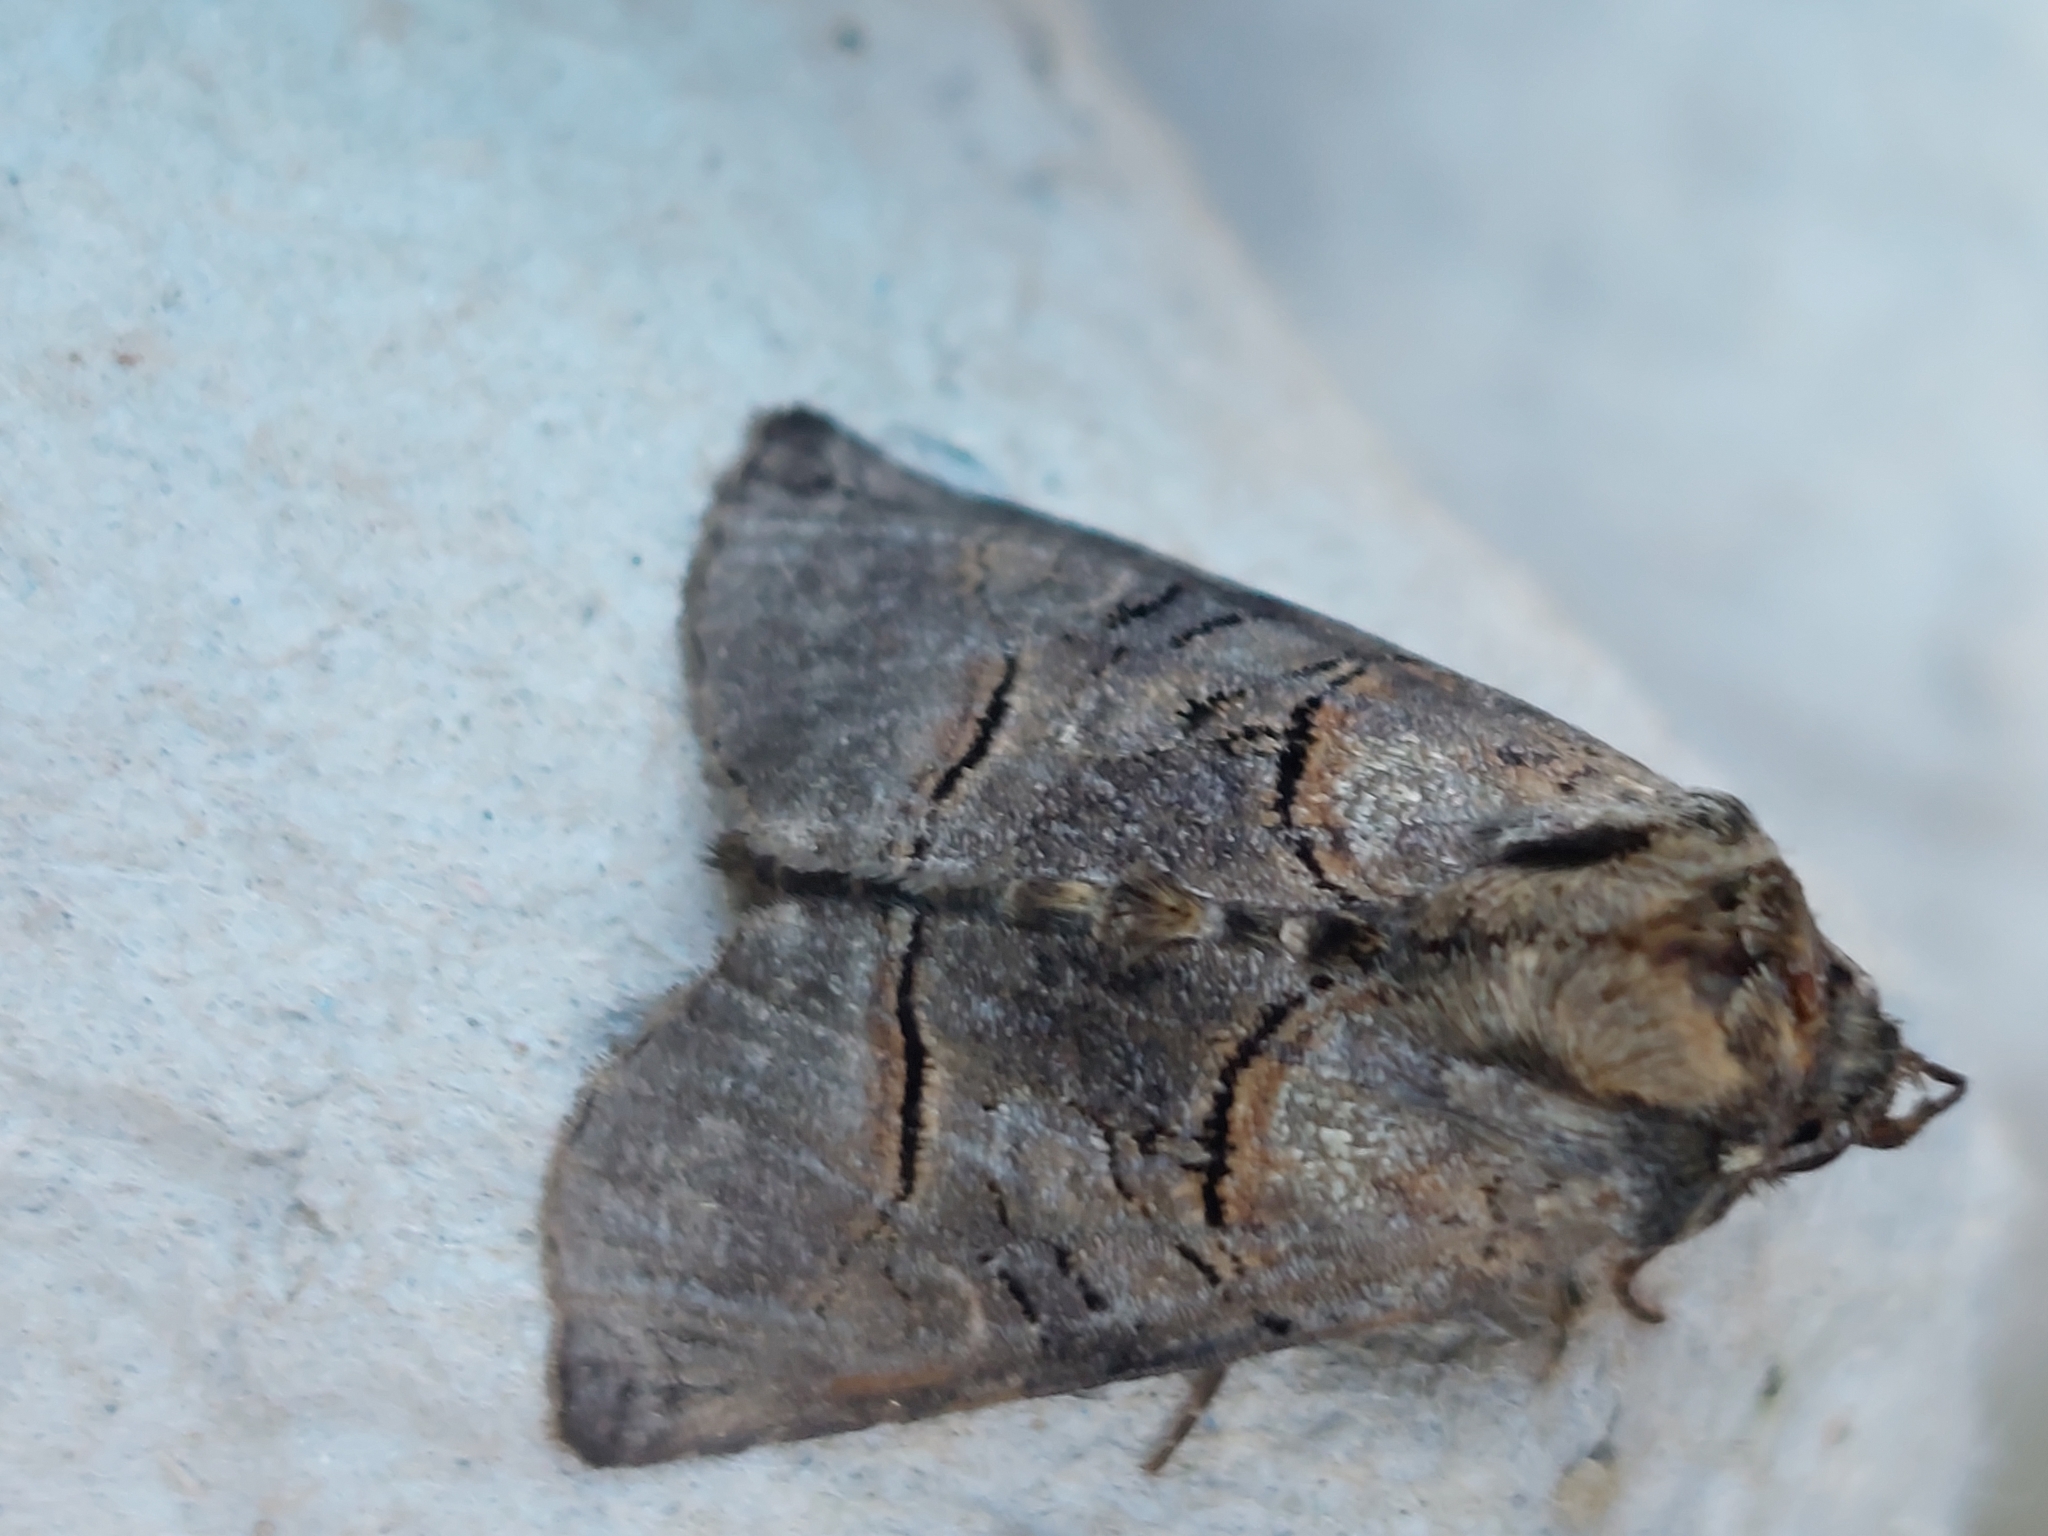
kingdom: Animalia
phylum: Arthropoda
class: Insecta
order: Lepidoptera
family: Noctuidae
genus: Abrostola
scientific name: Abrostola tripartita
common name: Spectacle
